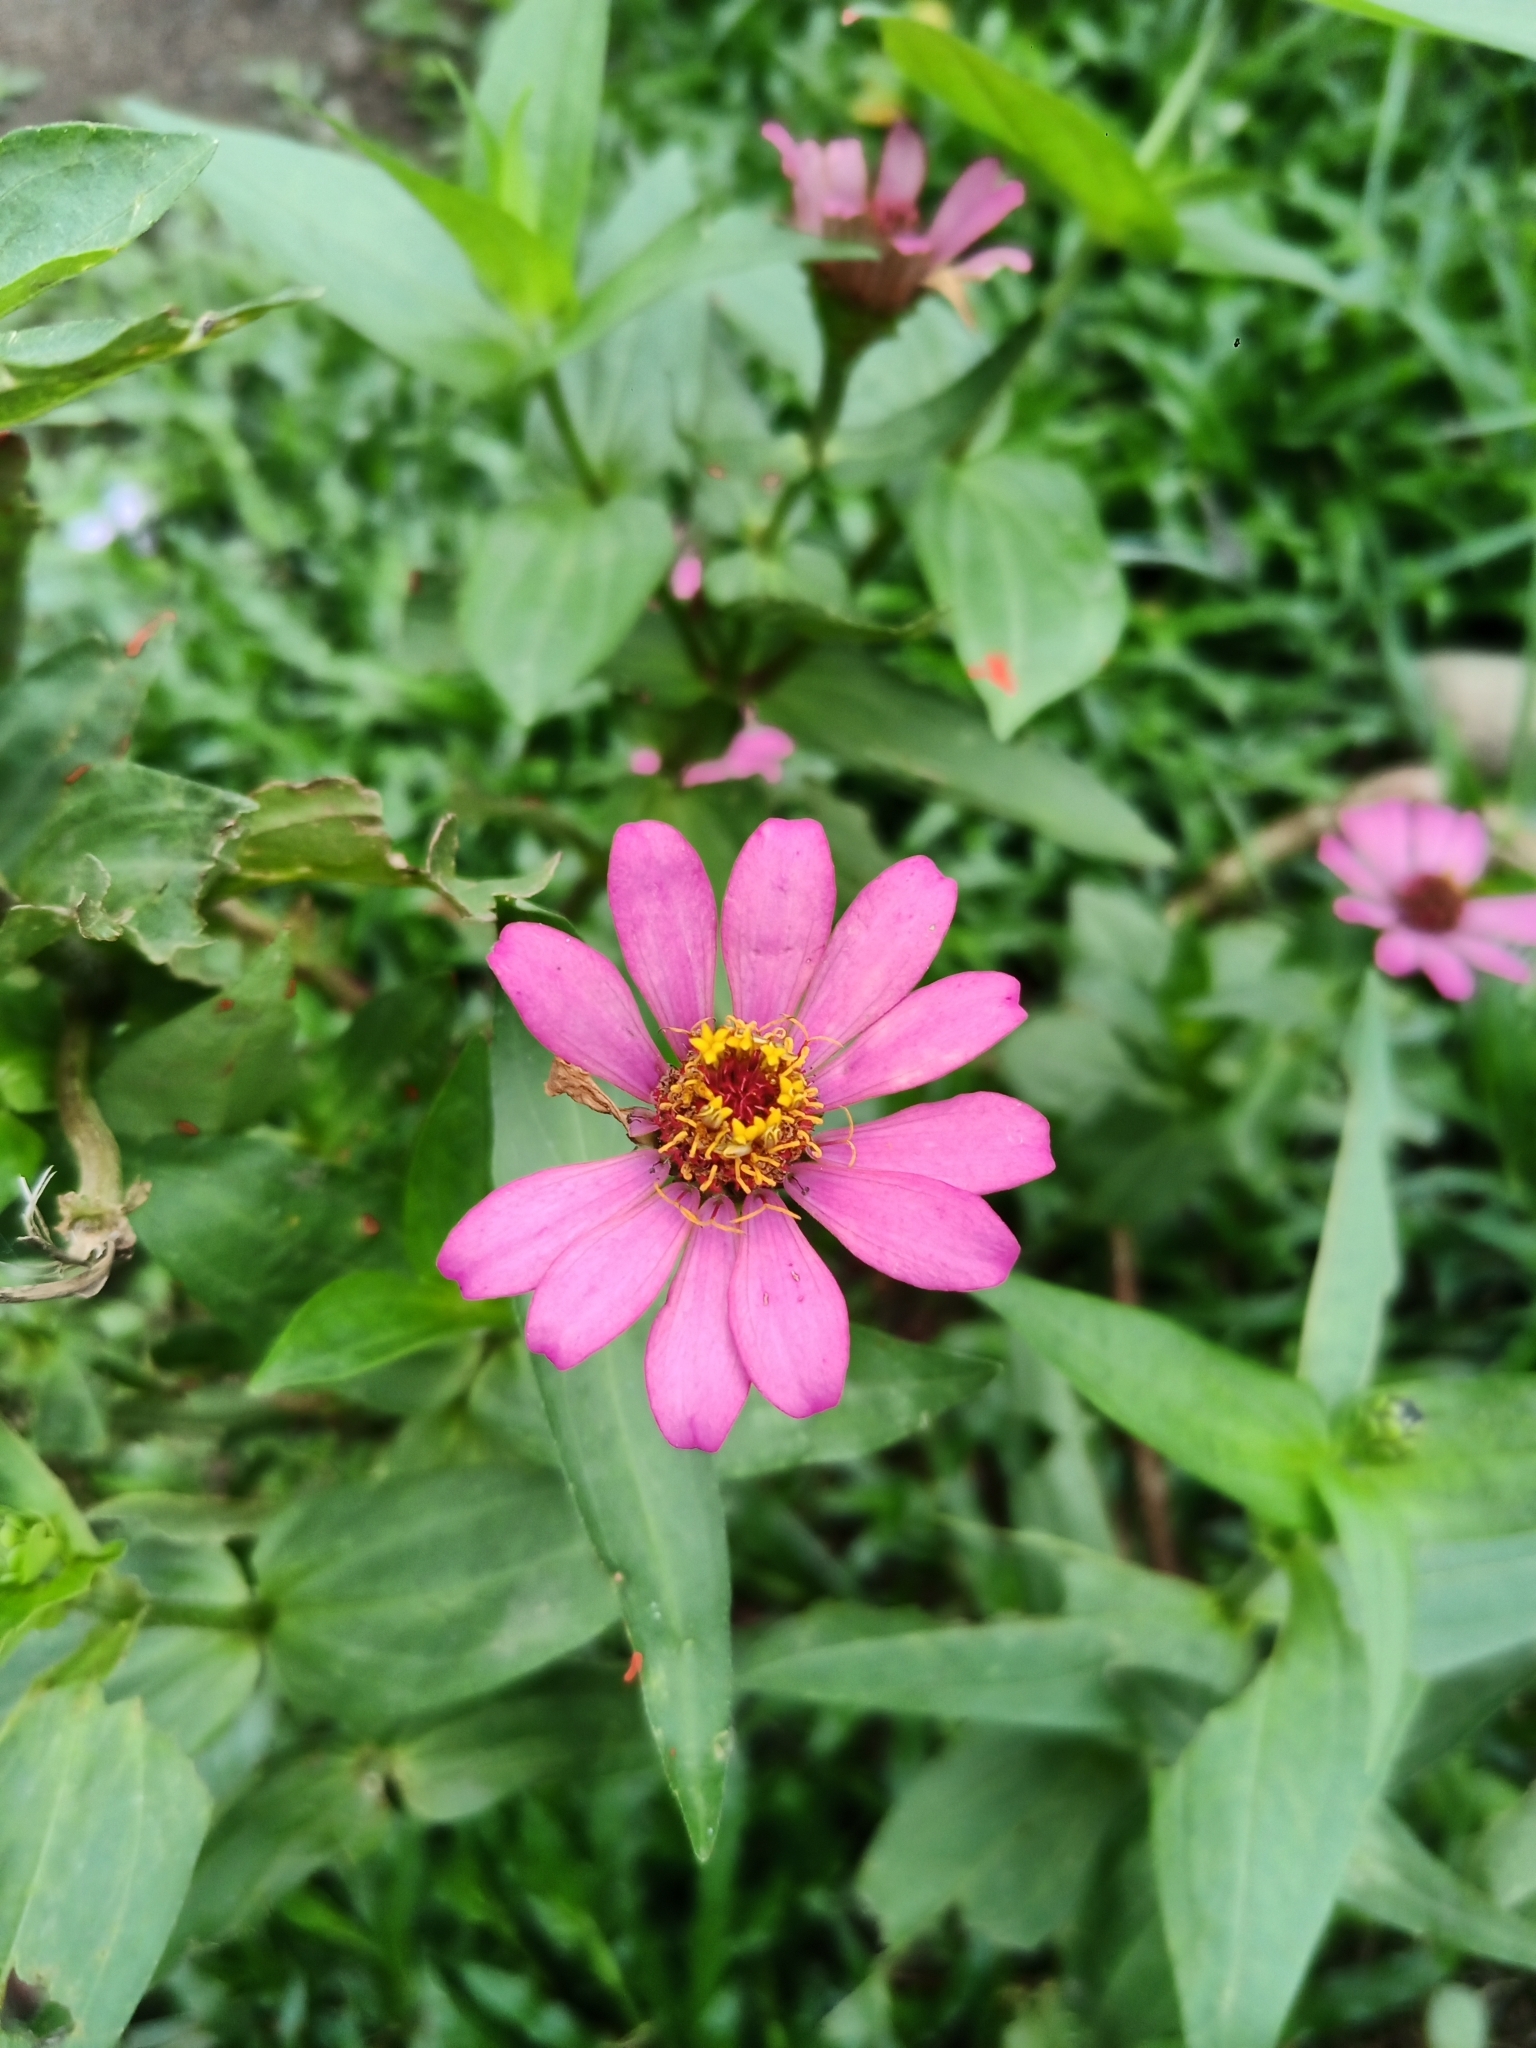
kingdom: Plantae
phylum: Tracheophyta
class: Magnoliopsida
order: Asterales
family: Asteraceae
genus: Zinnia
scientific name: Zinnia elegans
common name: Youth-and-age
